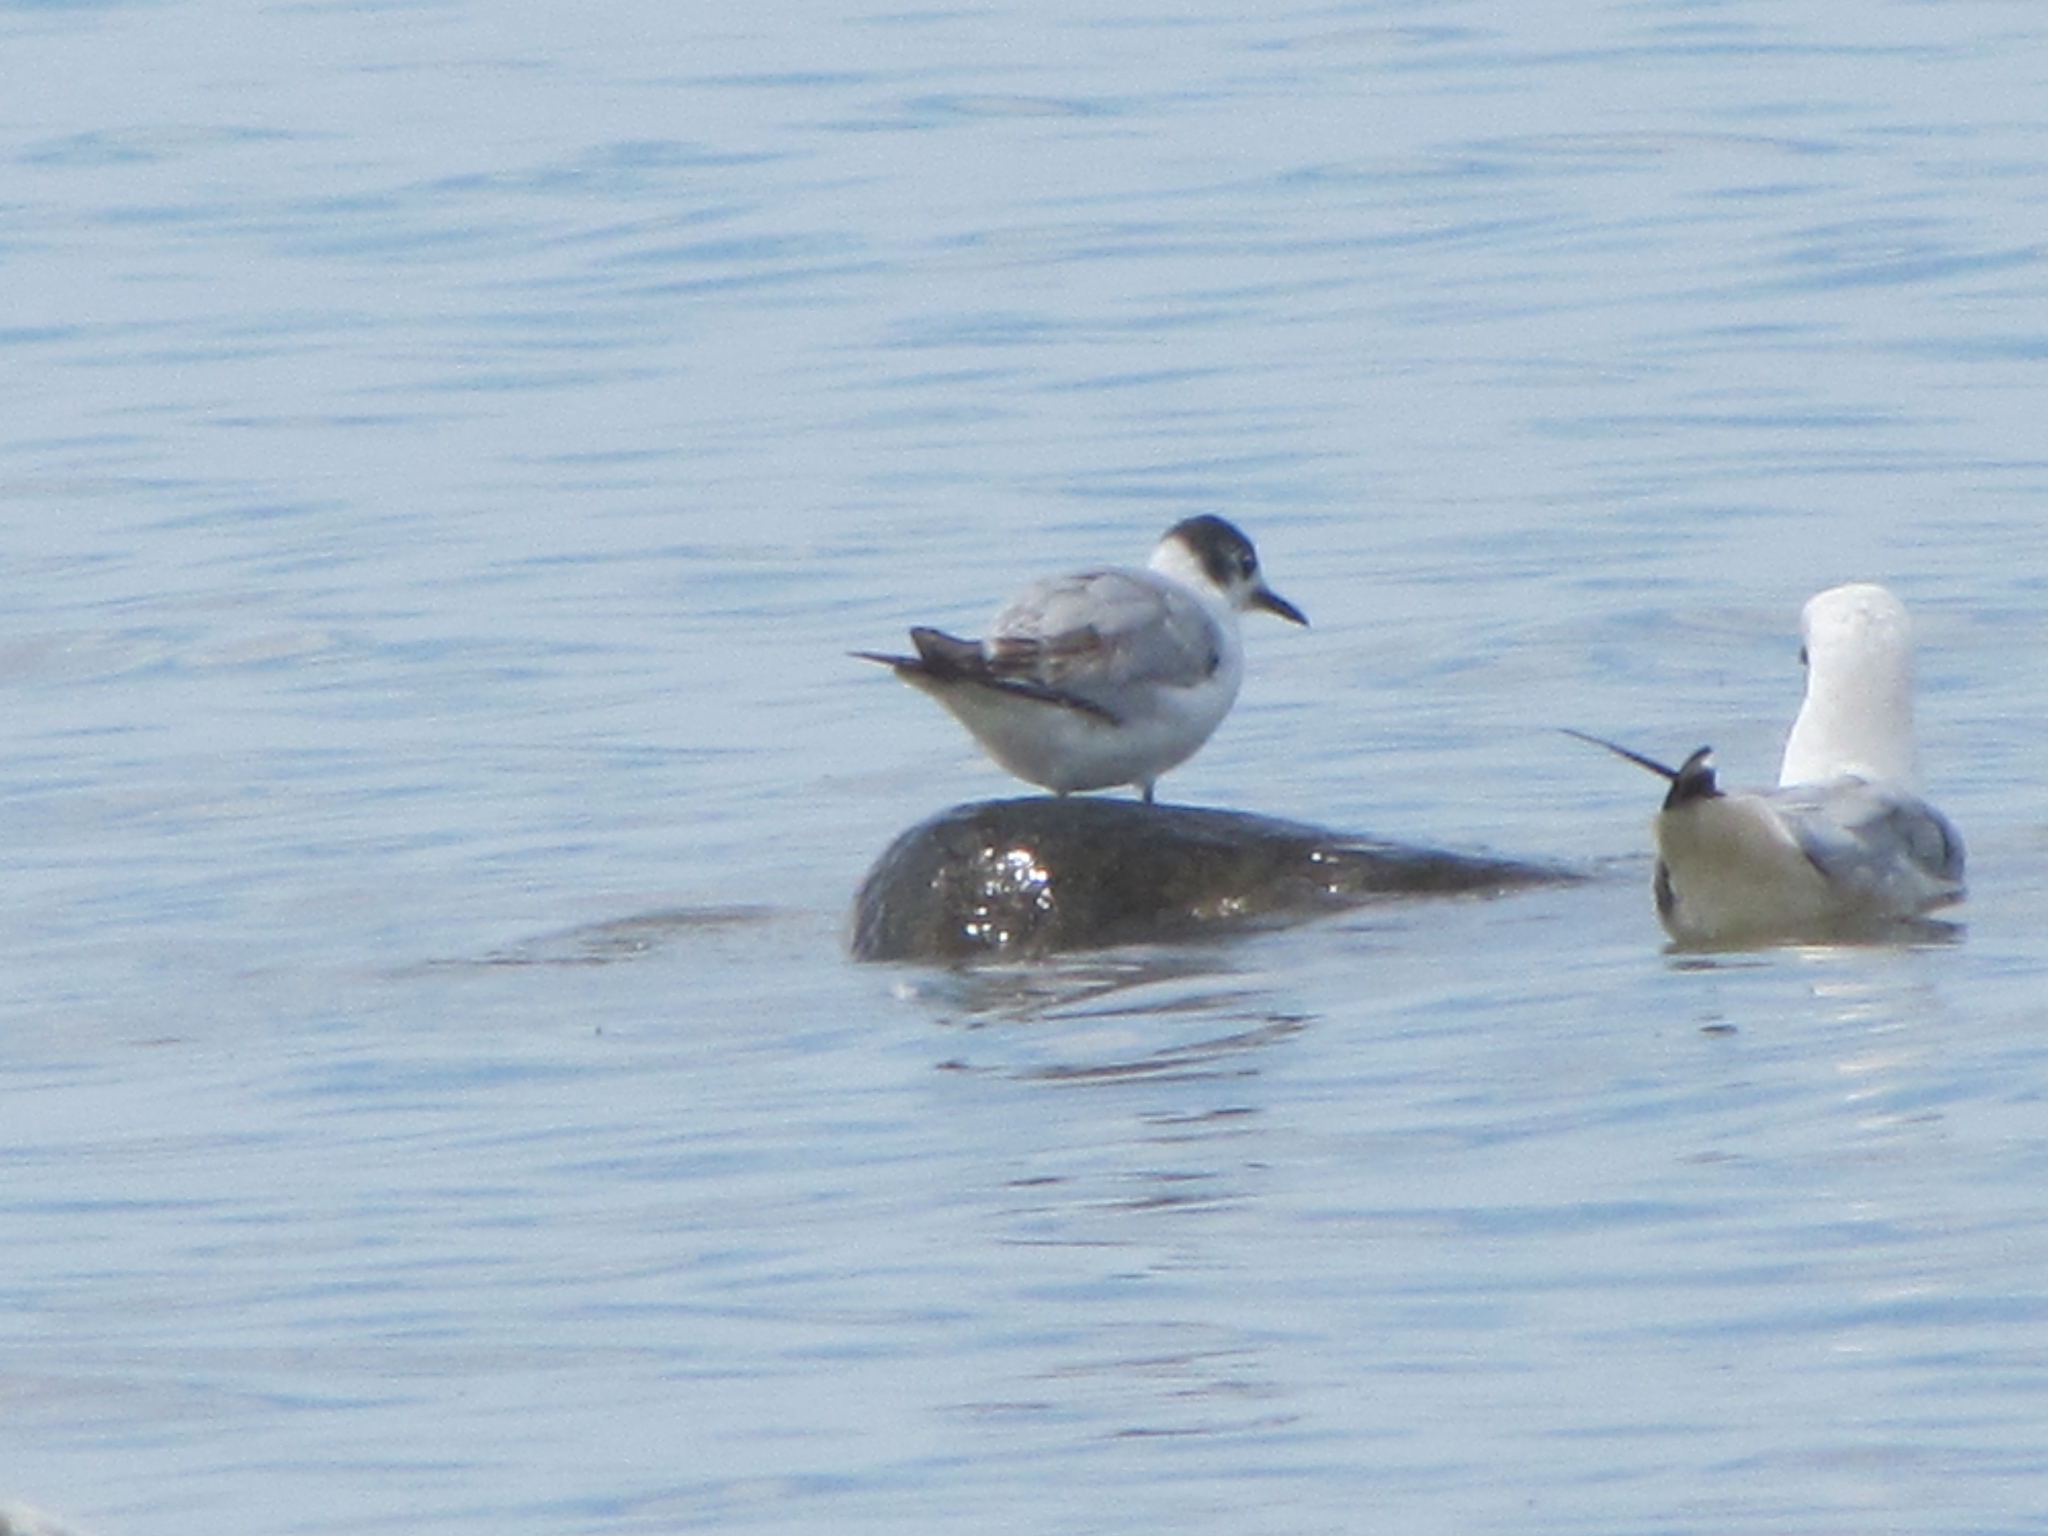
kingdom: Animalia
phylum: Chordata
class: Aves
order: Charadriiformes
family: Laridae
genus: Chroicocephalus
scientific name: Chroicocephalus philadelphia
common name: Bonaparte's gull
